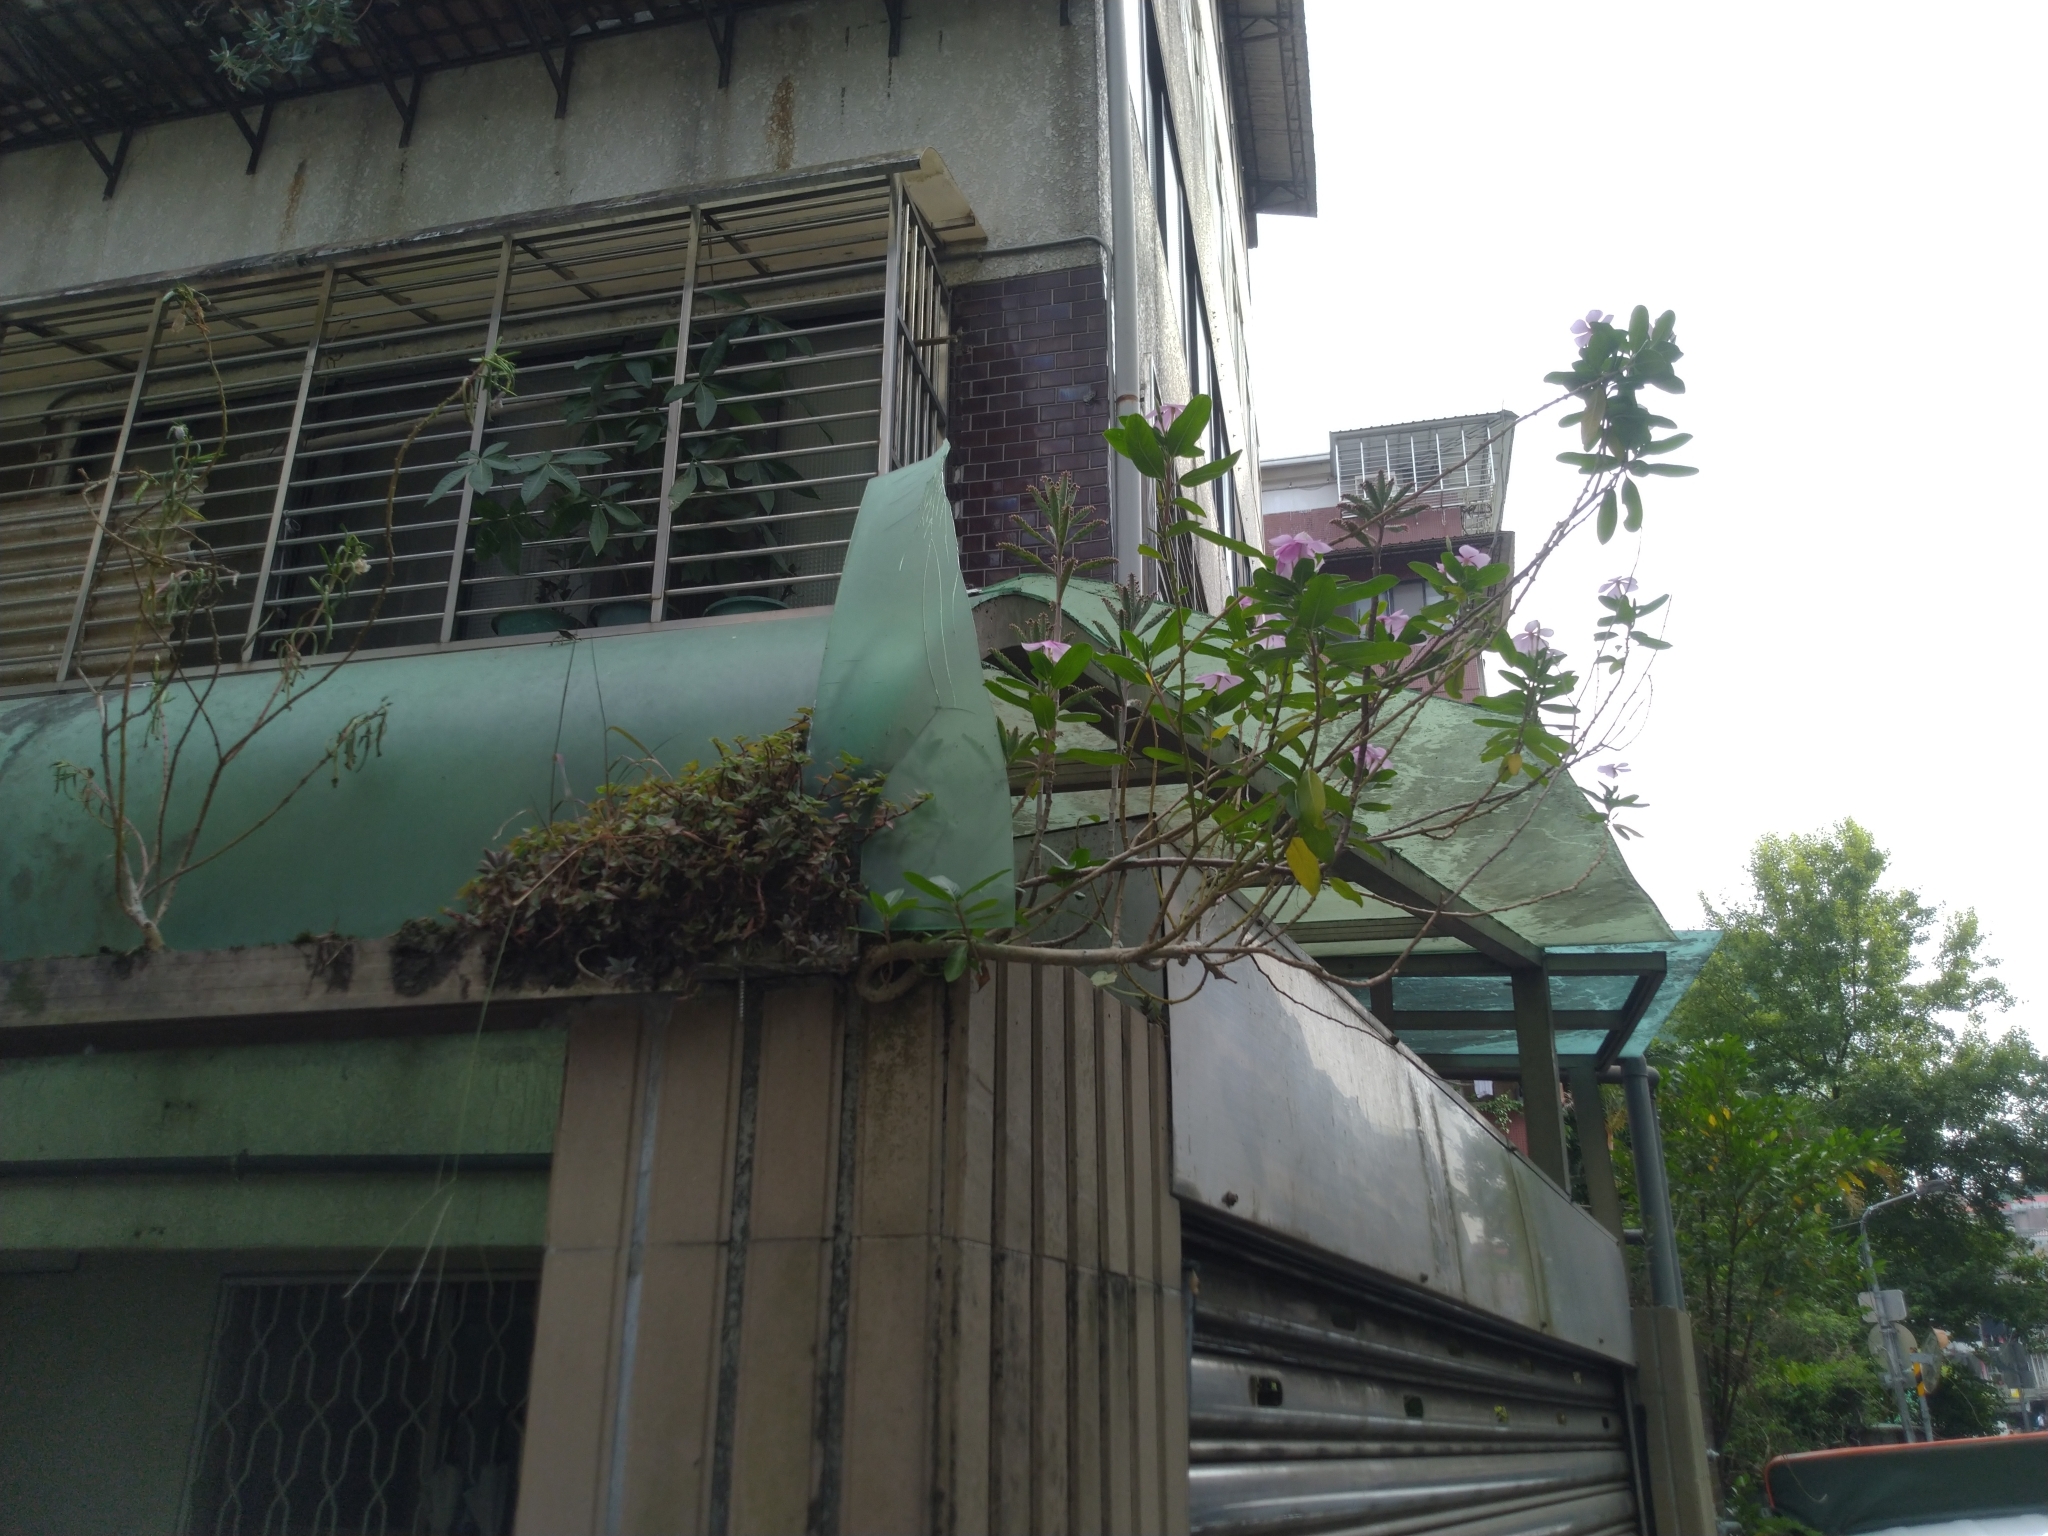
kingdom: Plantae
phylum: Tracheophyta
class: Magnoliopsida
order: Gentianales
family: Apocynaceae
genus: Catharanthus
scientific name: Catharanthus roseus
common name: Madagascar periwinkle
